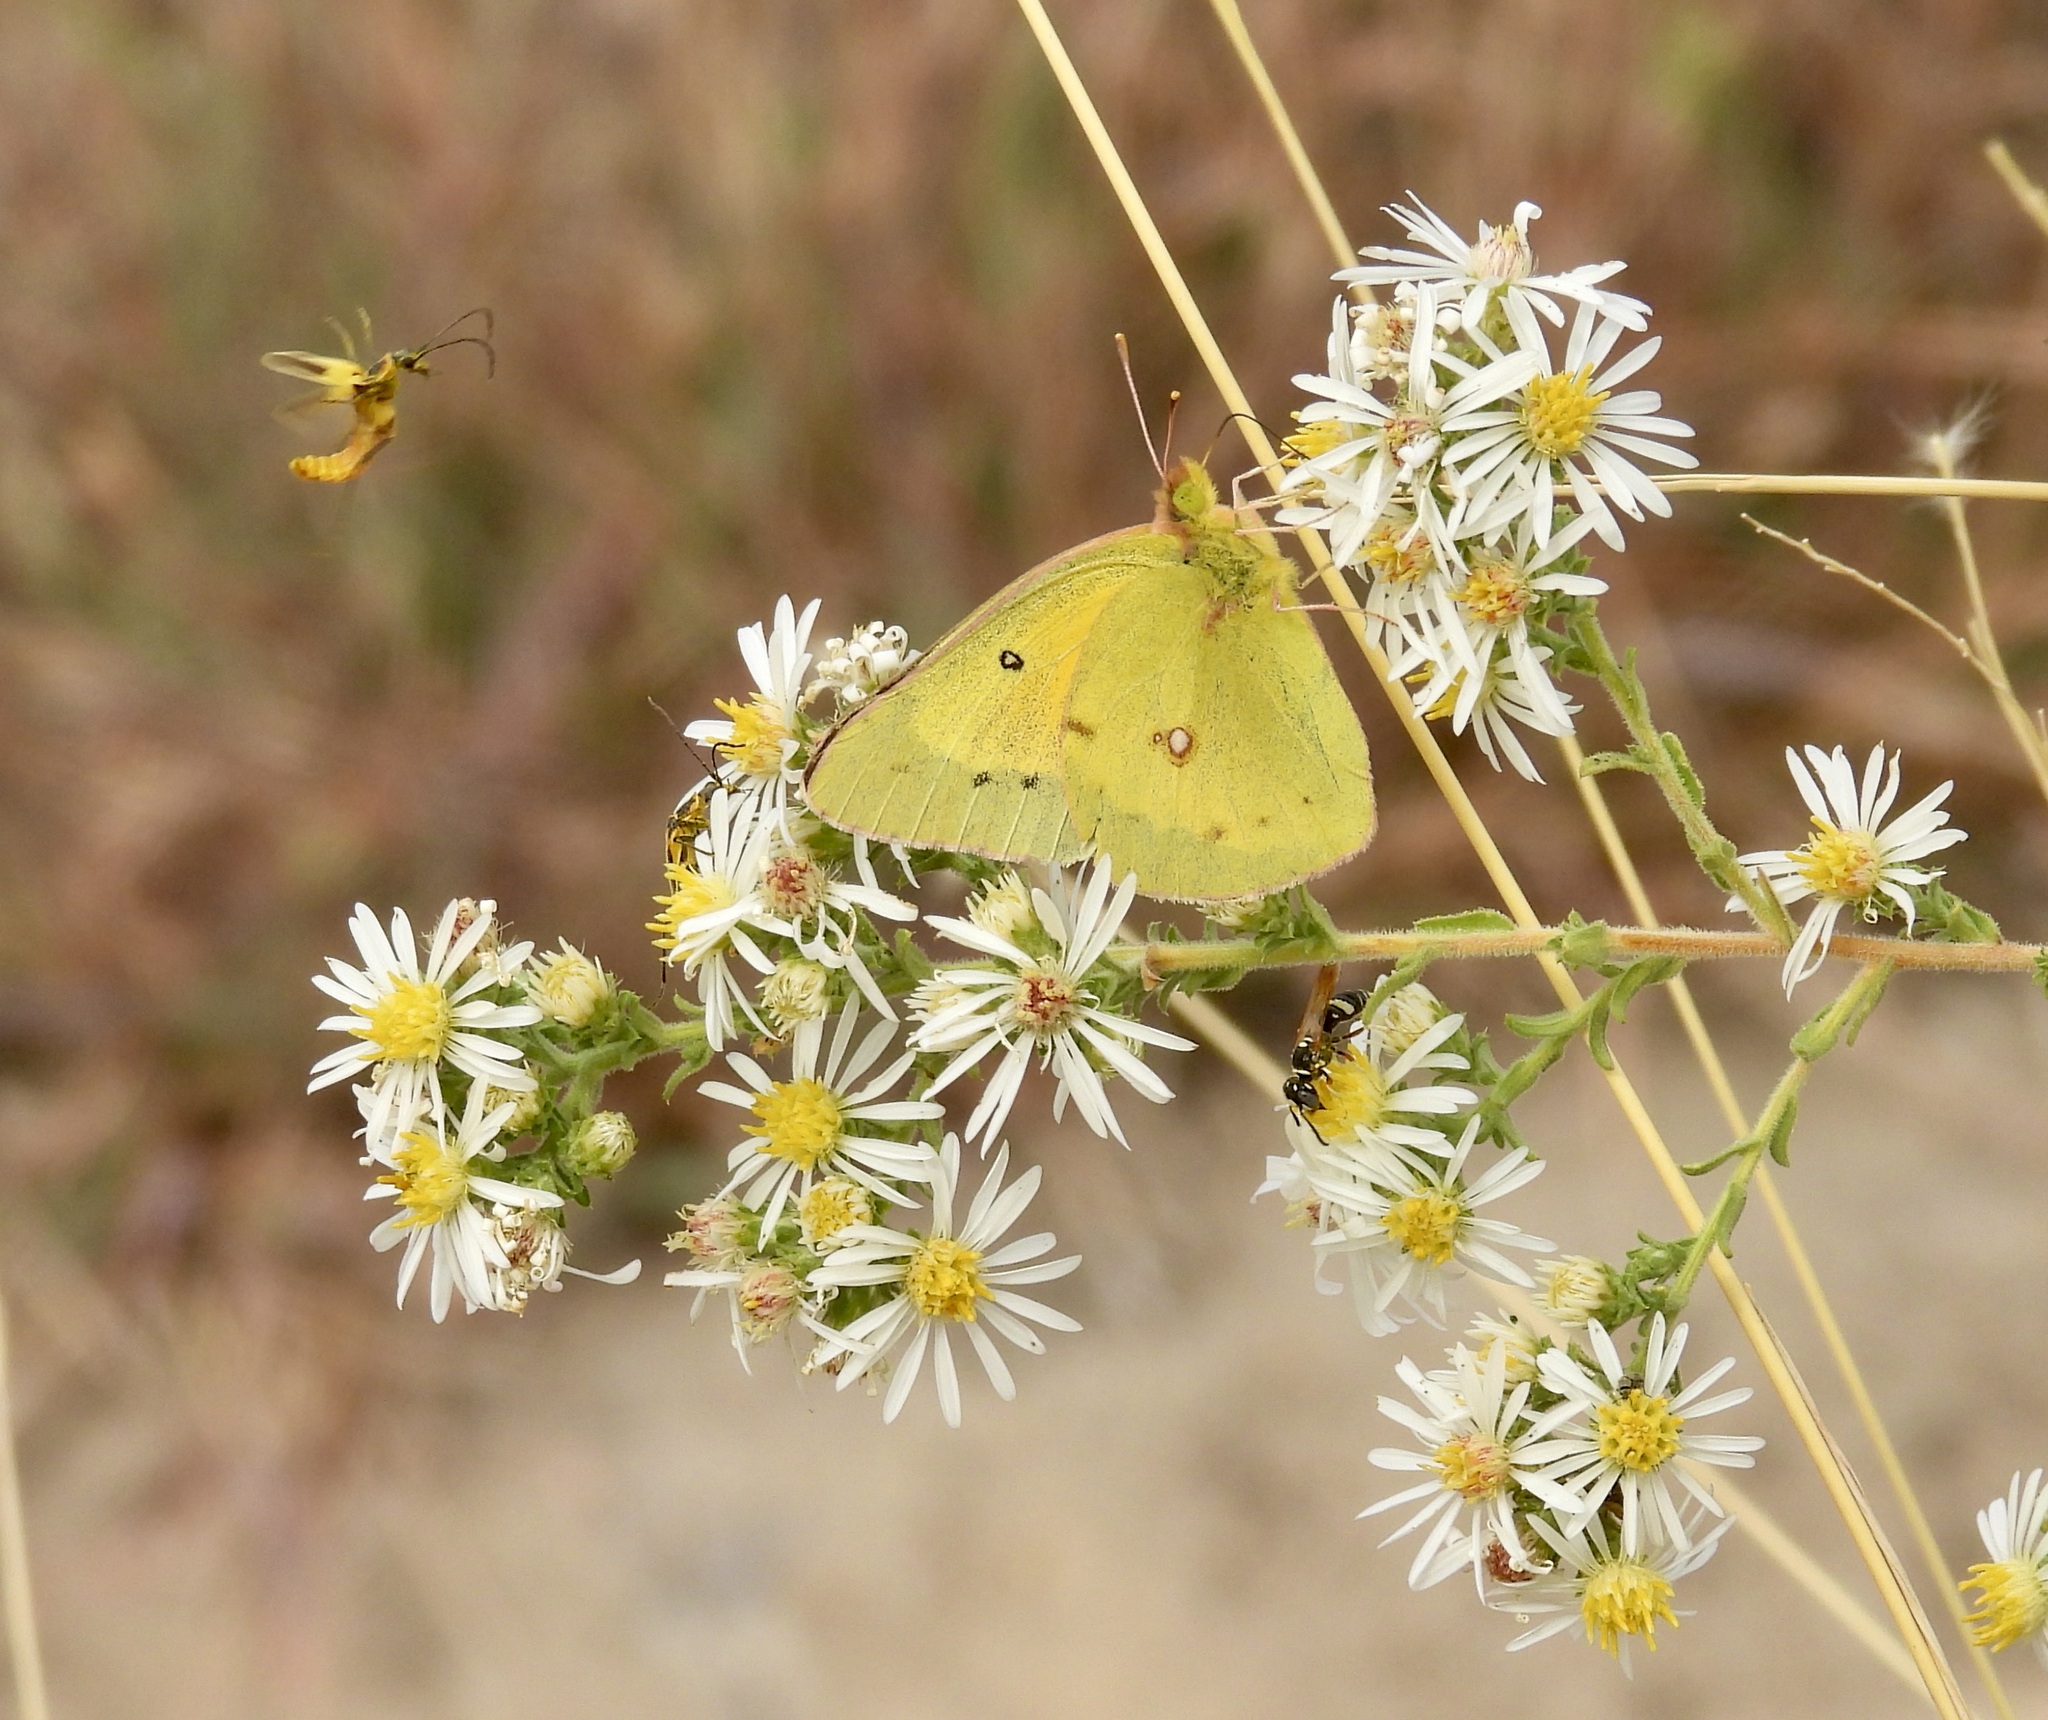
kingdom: Animalia
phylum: Arthropoda
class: Insecta
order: Lepidoptera
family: Pieridae
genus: Colias
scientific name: Colias eurytheme
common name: Alfalfa butterfly
